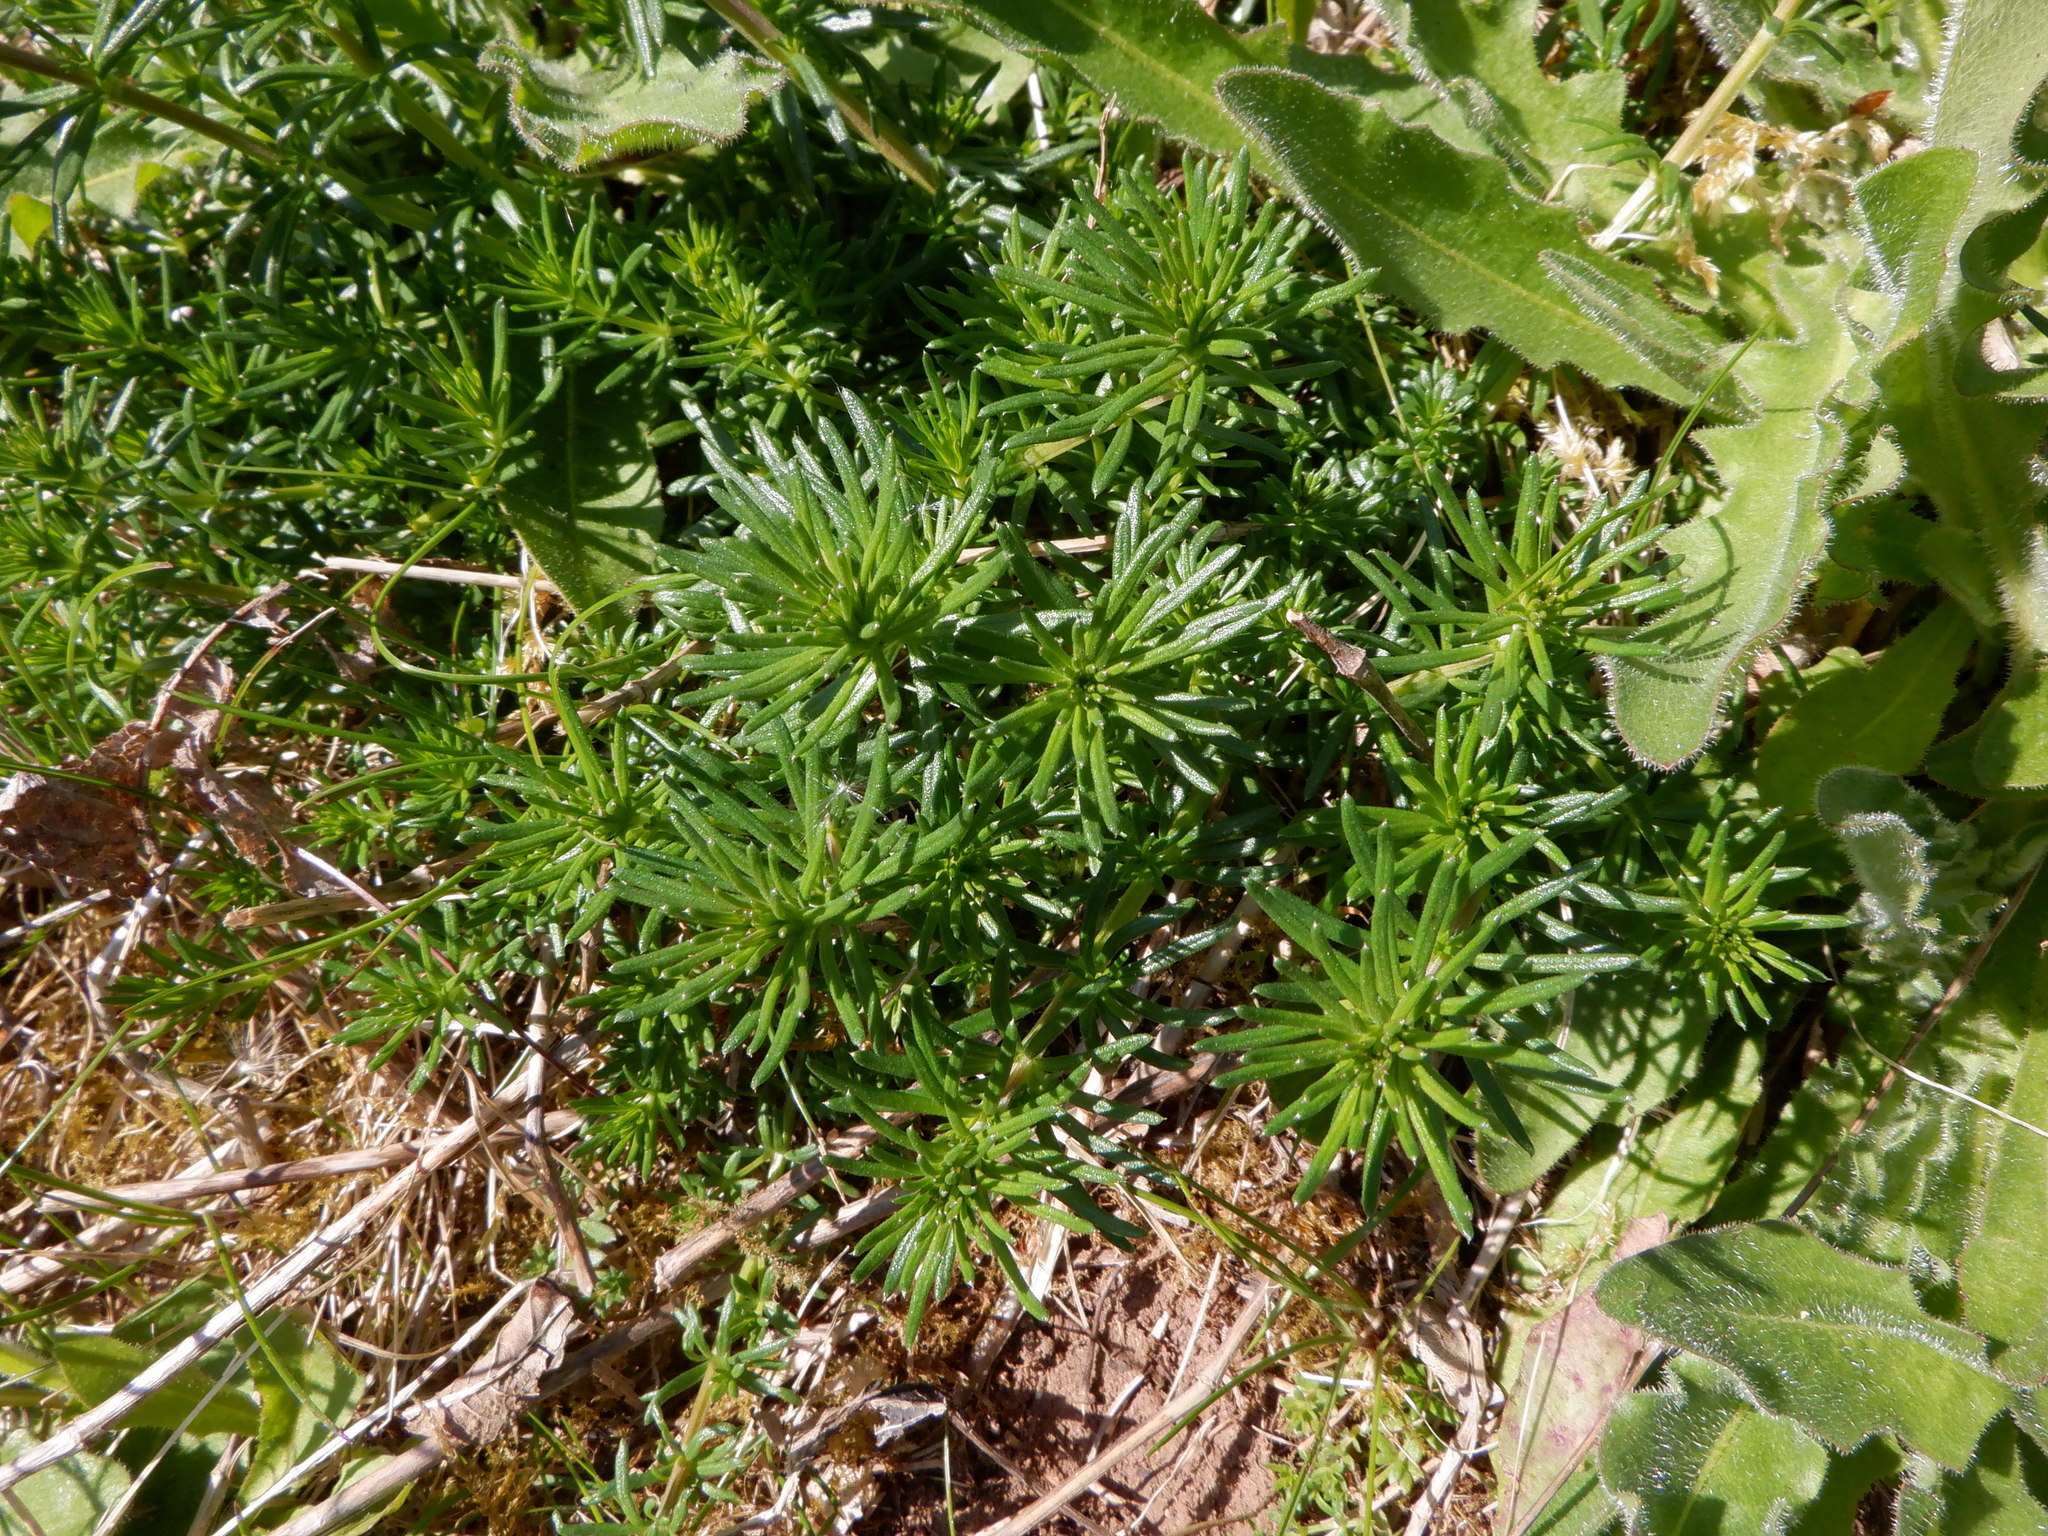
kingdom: Plantae
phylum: Tracheophyta
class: Magnoliopsida
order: Gentianales
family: Rubiaceae
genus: Galium
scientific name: Galium verum
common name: Lady's bedstraw
